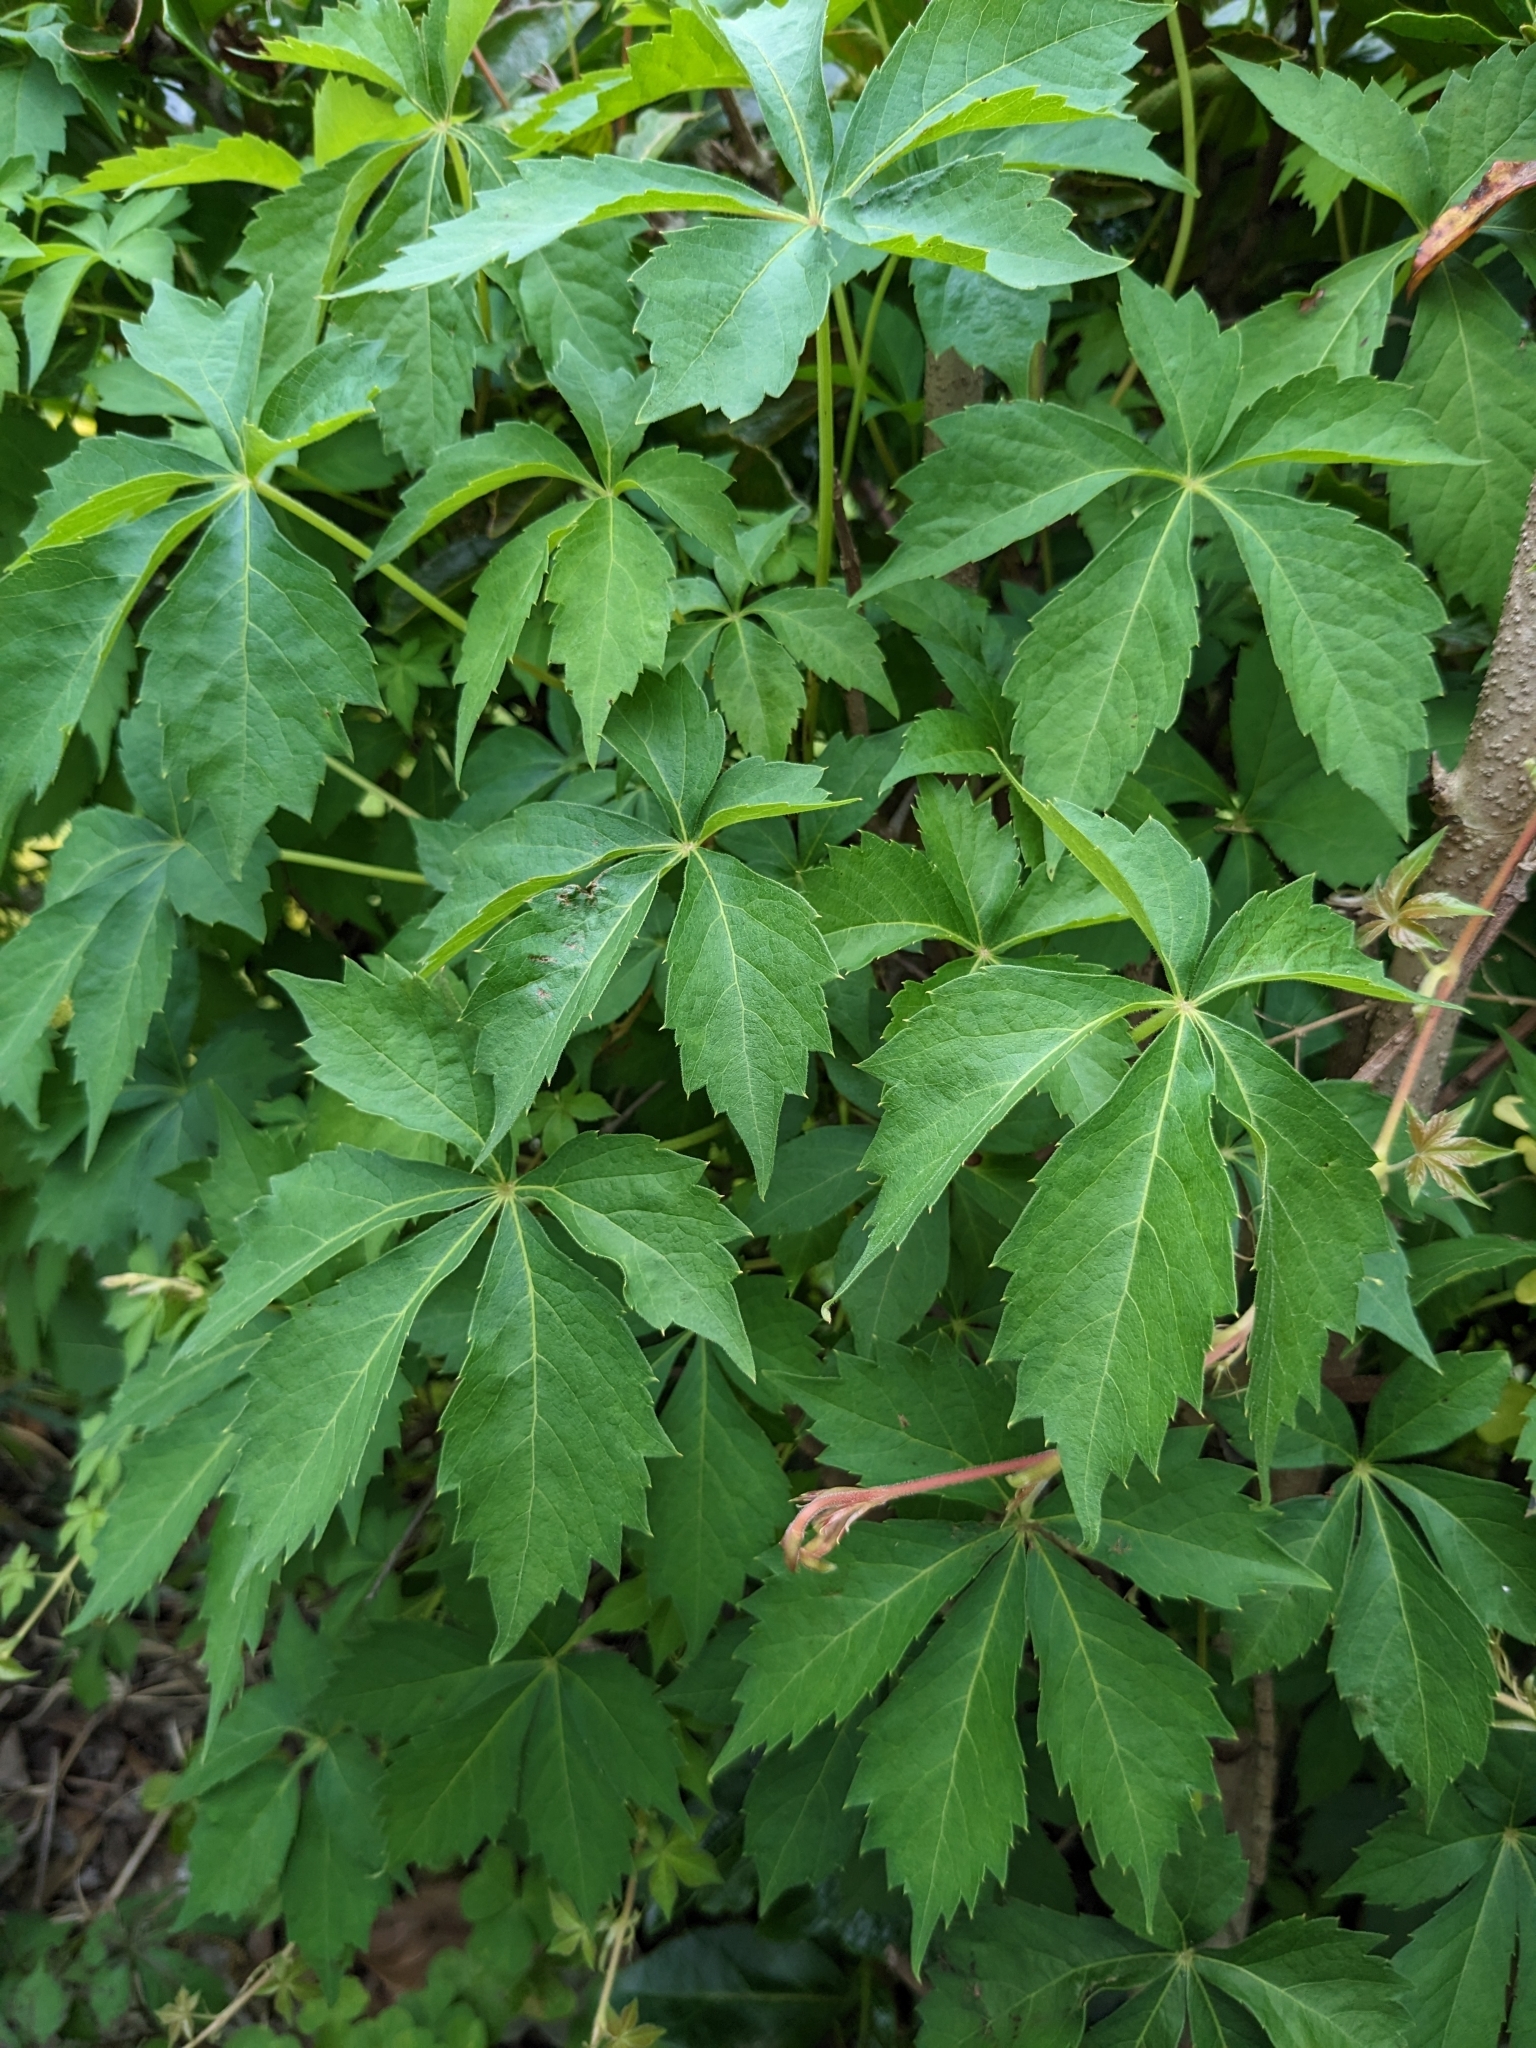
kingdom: Plantae
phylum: Tracheophyta
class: Magnoliopsida
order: Vitales
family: Vitaceae
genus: Parthenocissus
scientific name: Parthenocissus quinquefolia
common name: Virginia-creeper
